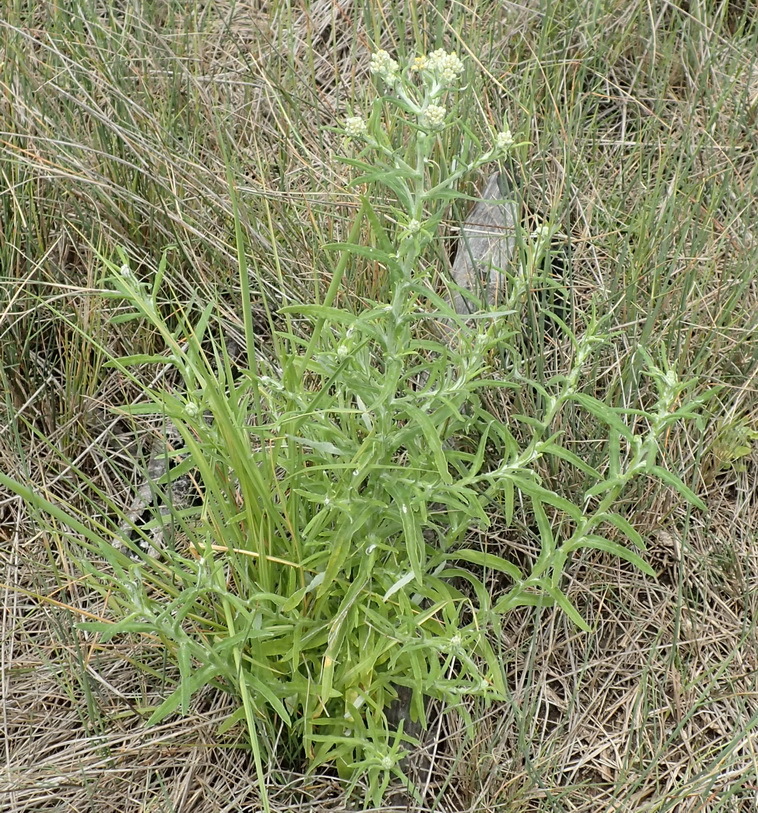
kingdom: Plantae
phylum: Tracheophyta
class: Magnoliopsida
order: Asterales
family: Asteraceae
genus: Pseudognaphalium
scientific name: Pseudognaphalium undulatum
